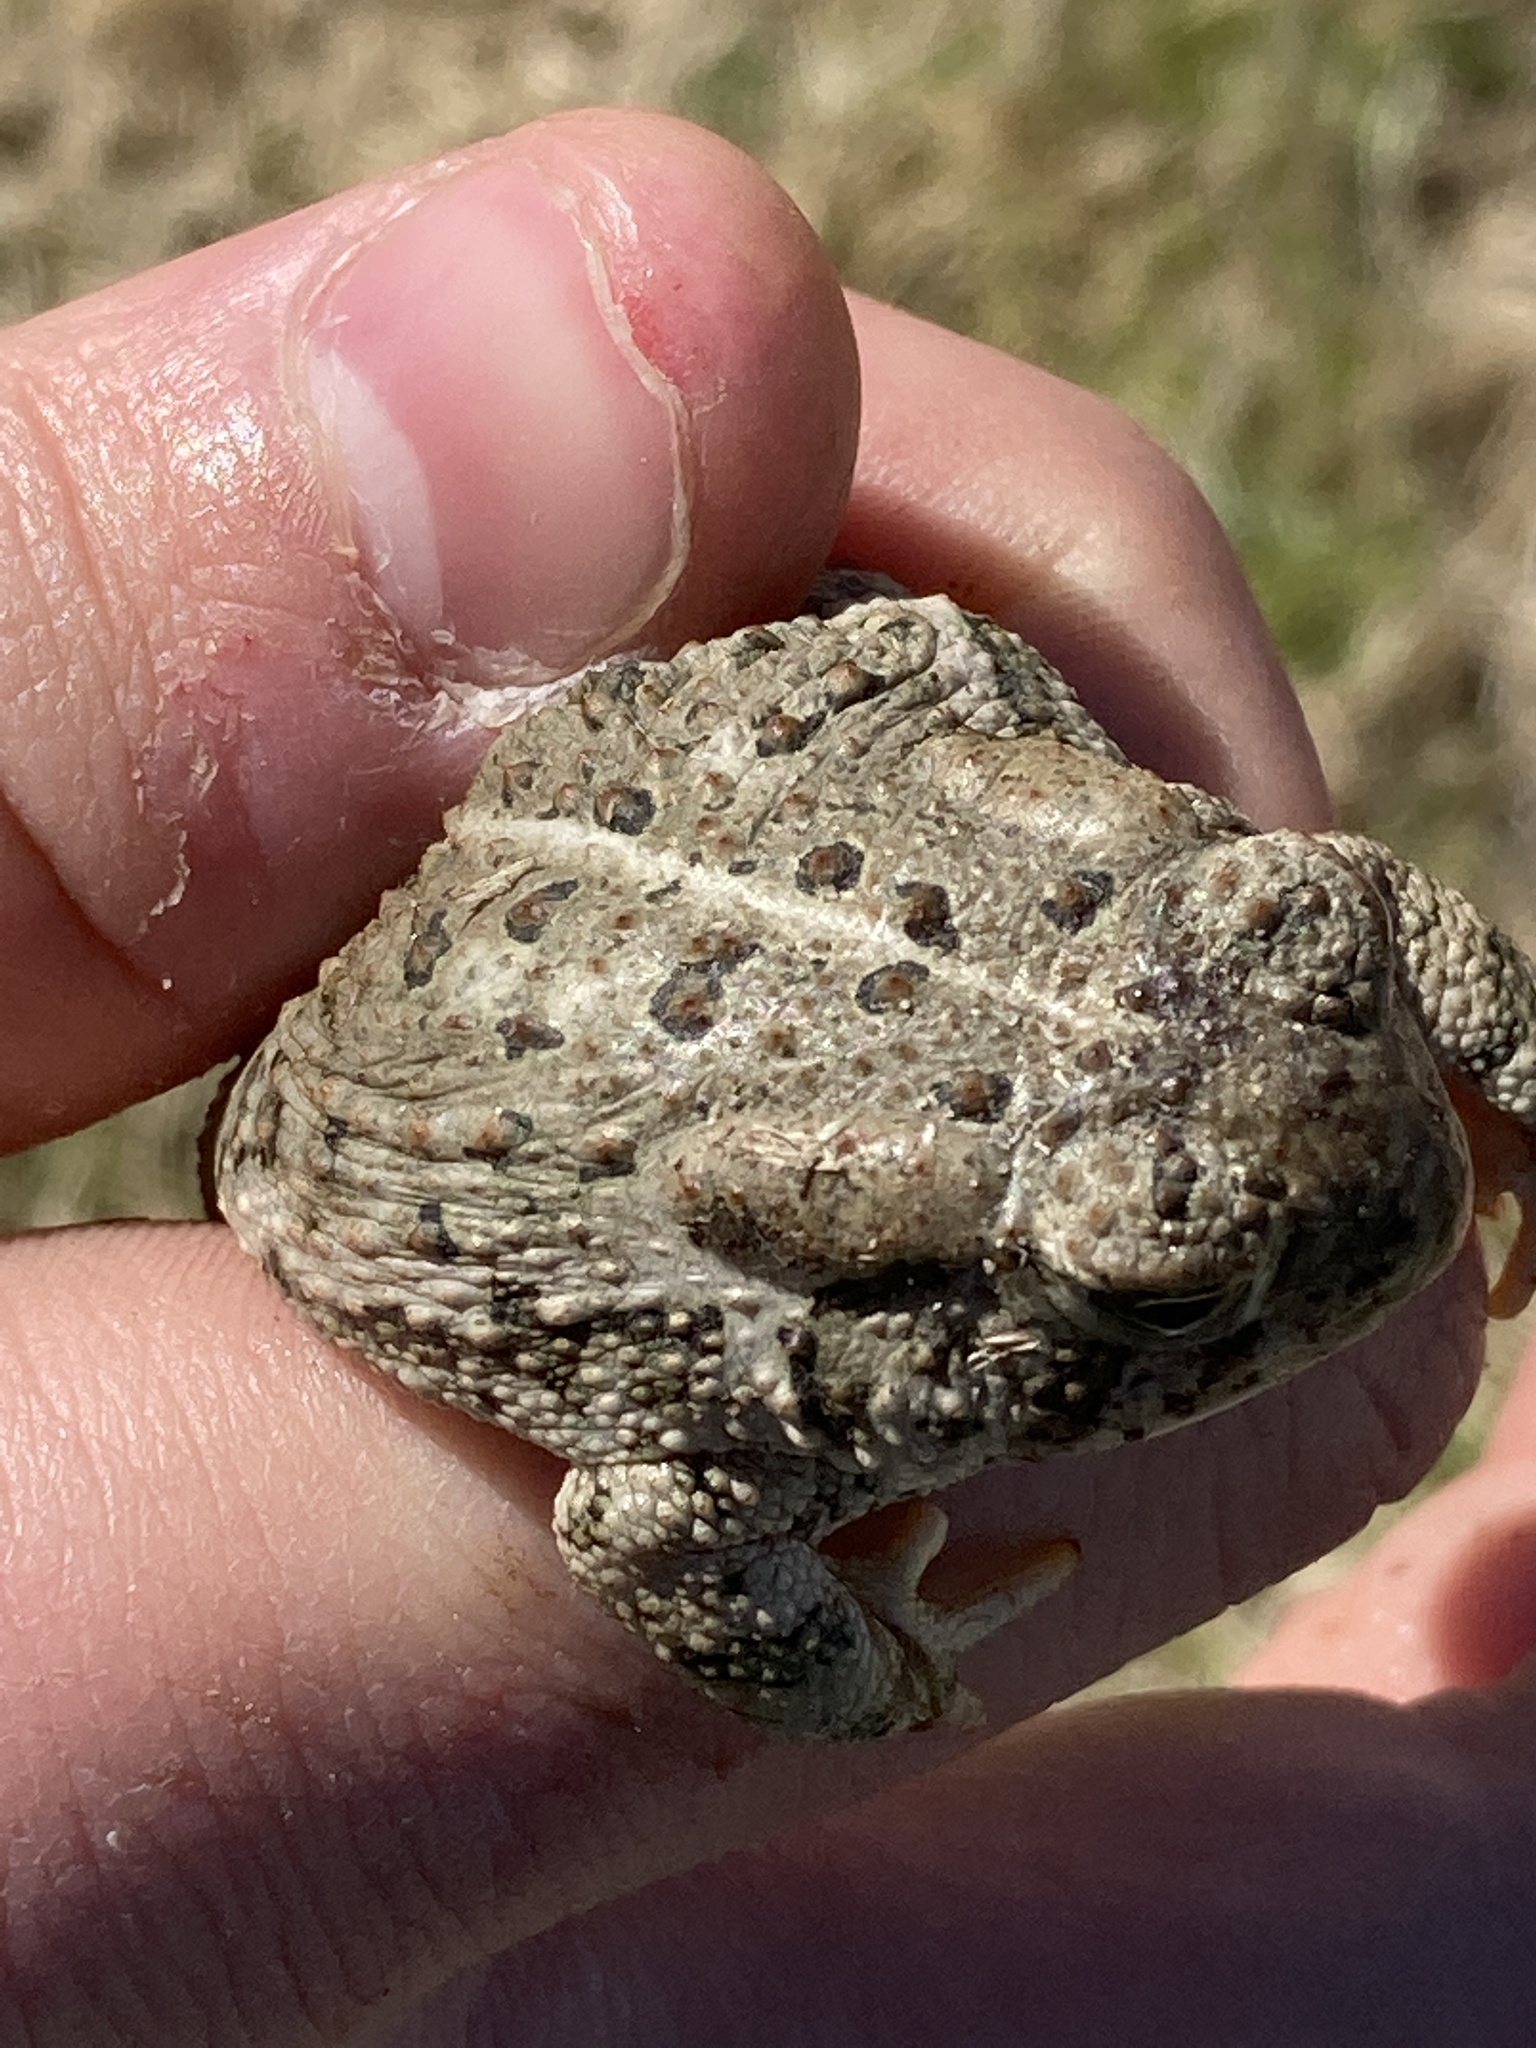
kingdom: Animalia
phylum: Chordata
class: Amphibia
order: Anura
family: Bufonidae
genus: Anaxyrus
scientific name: Anaxyrus woodhousii
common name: Woodhouse's toad
